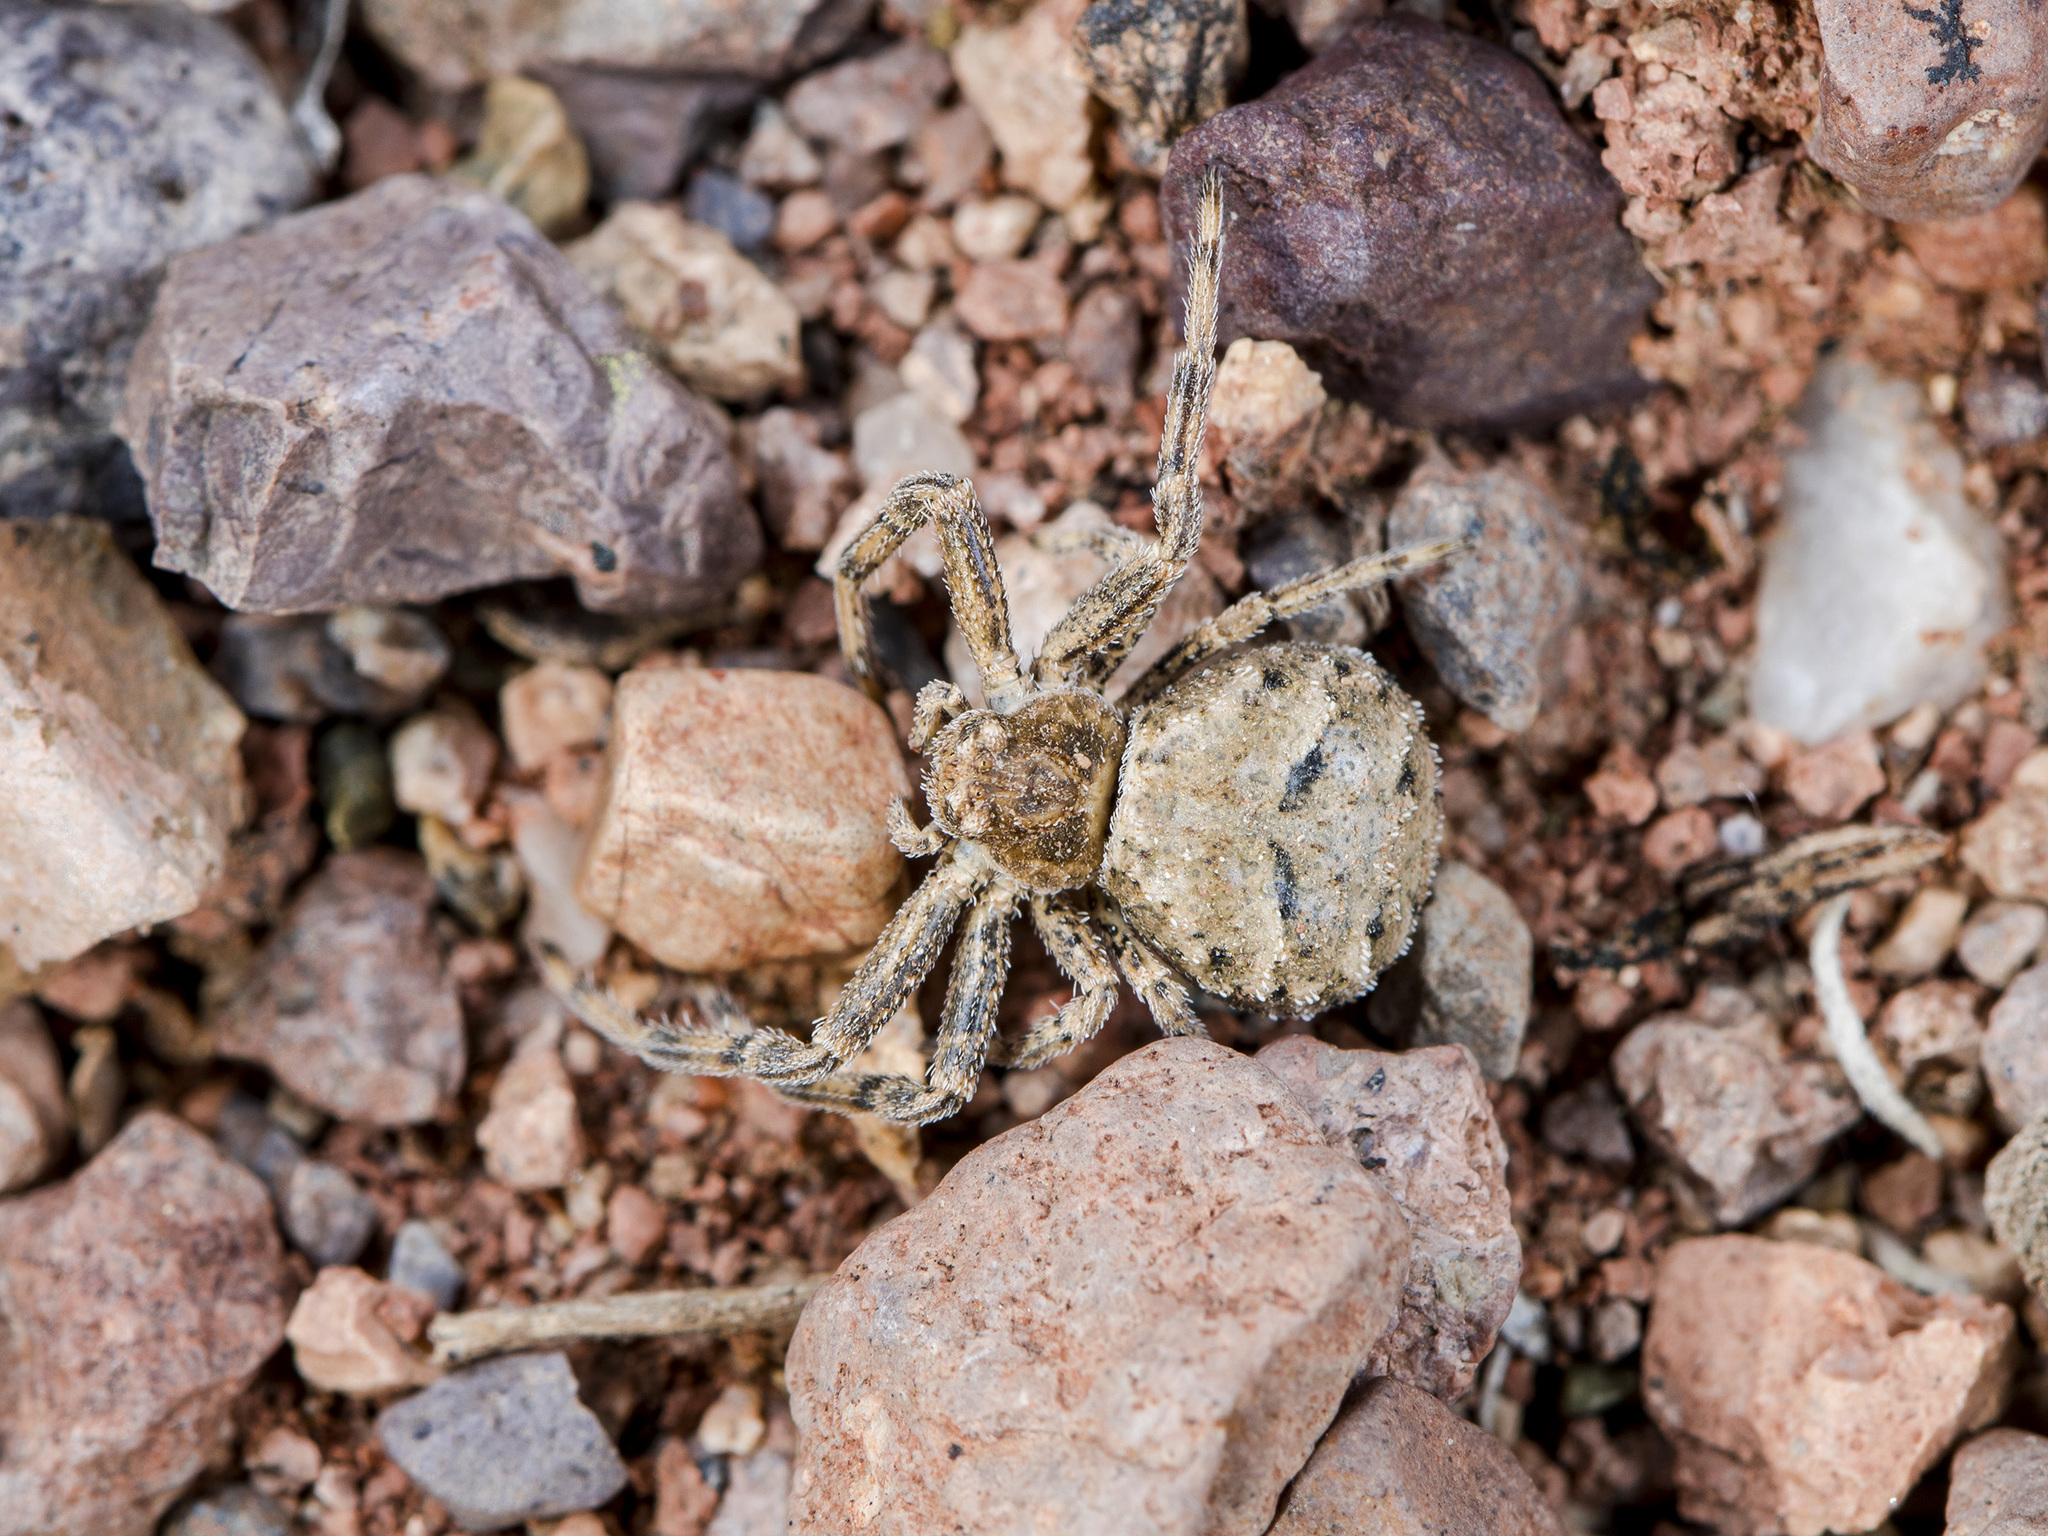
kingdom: Animalia
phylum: Arthropoda
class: Arachnida
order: Araneae
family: Thomisidae
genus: Ozyptila
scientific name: Ozyptila lugubris
